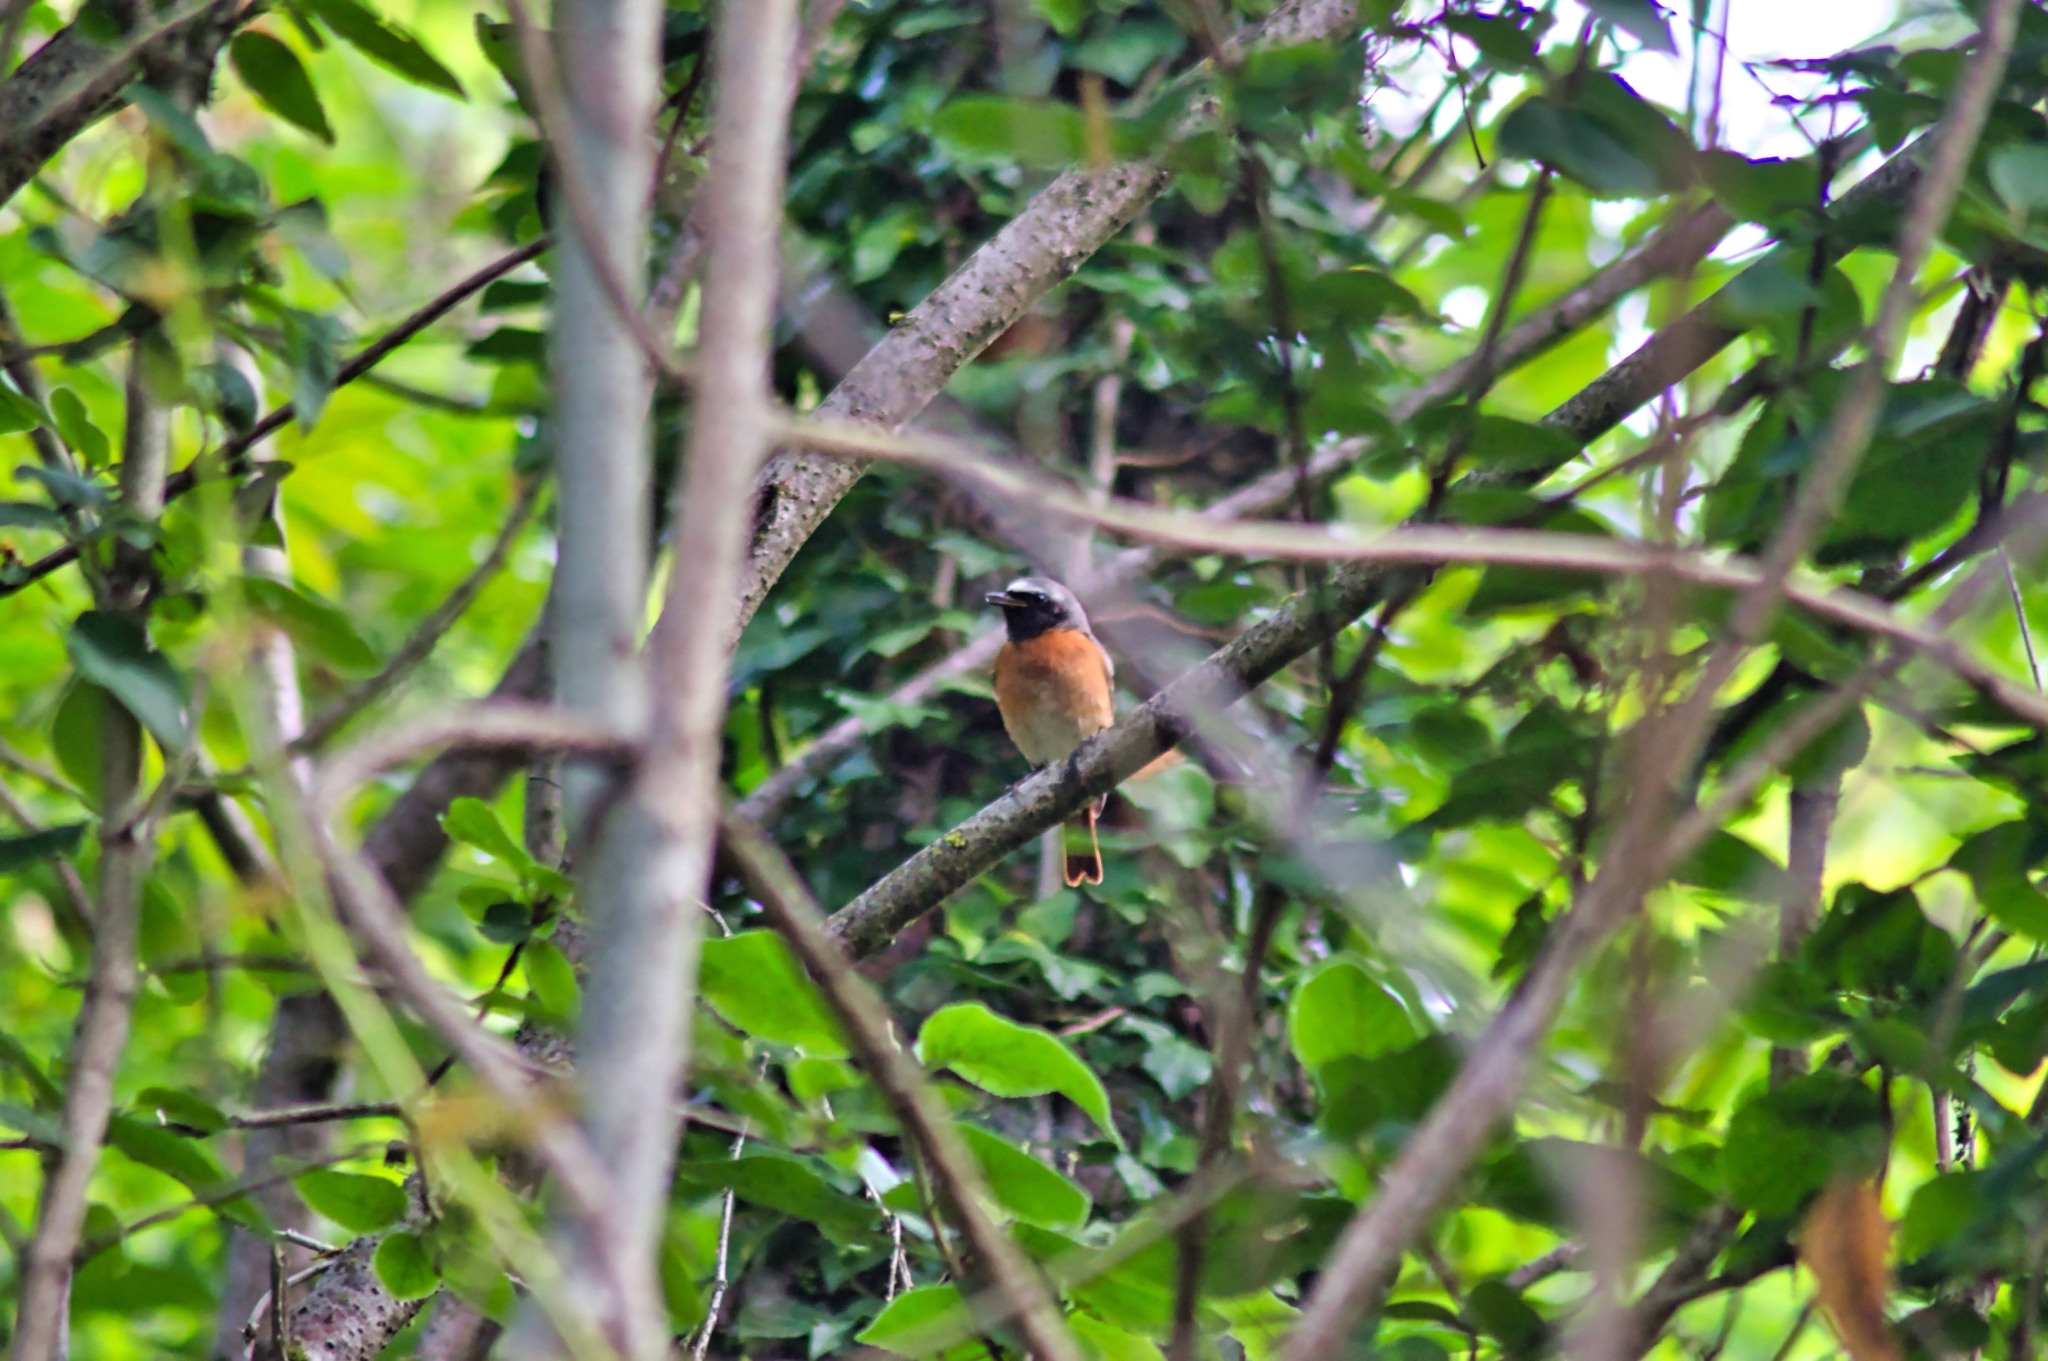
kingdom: Animalia
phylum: Chordata
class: Aves
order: Passeriformes
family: Muscicapidae
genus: Phoenicurus
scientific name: Phoenicurus phoenicurus
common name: Common redstart
